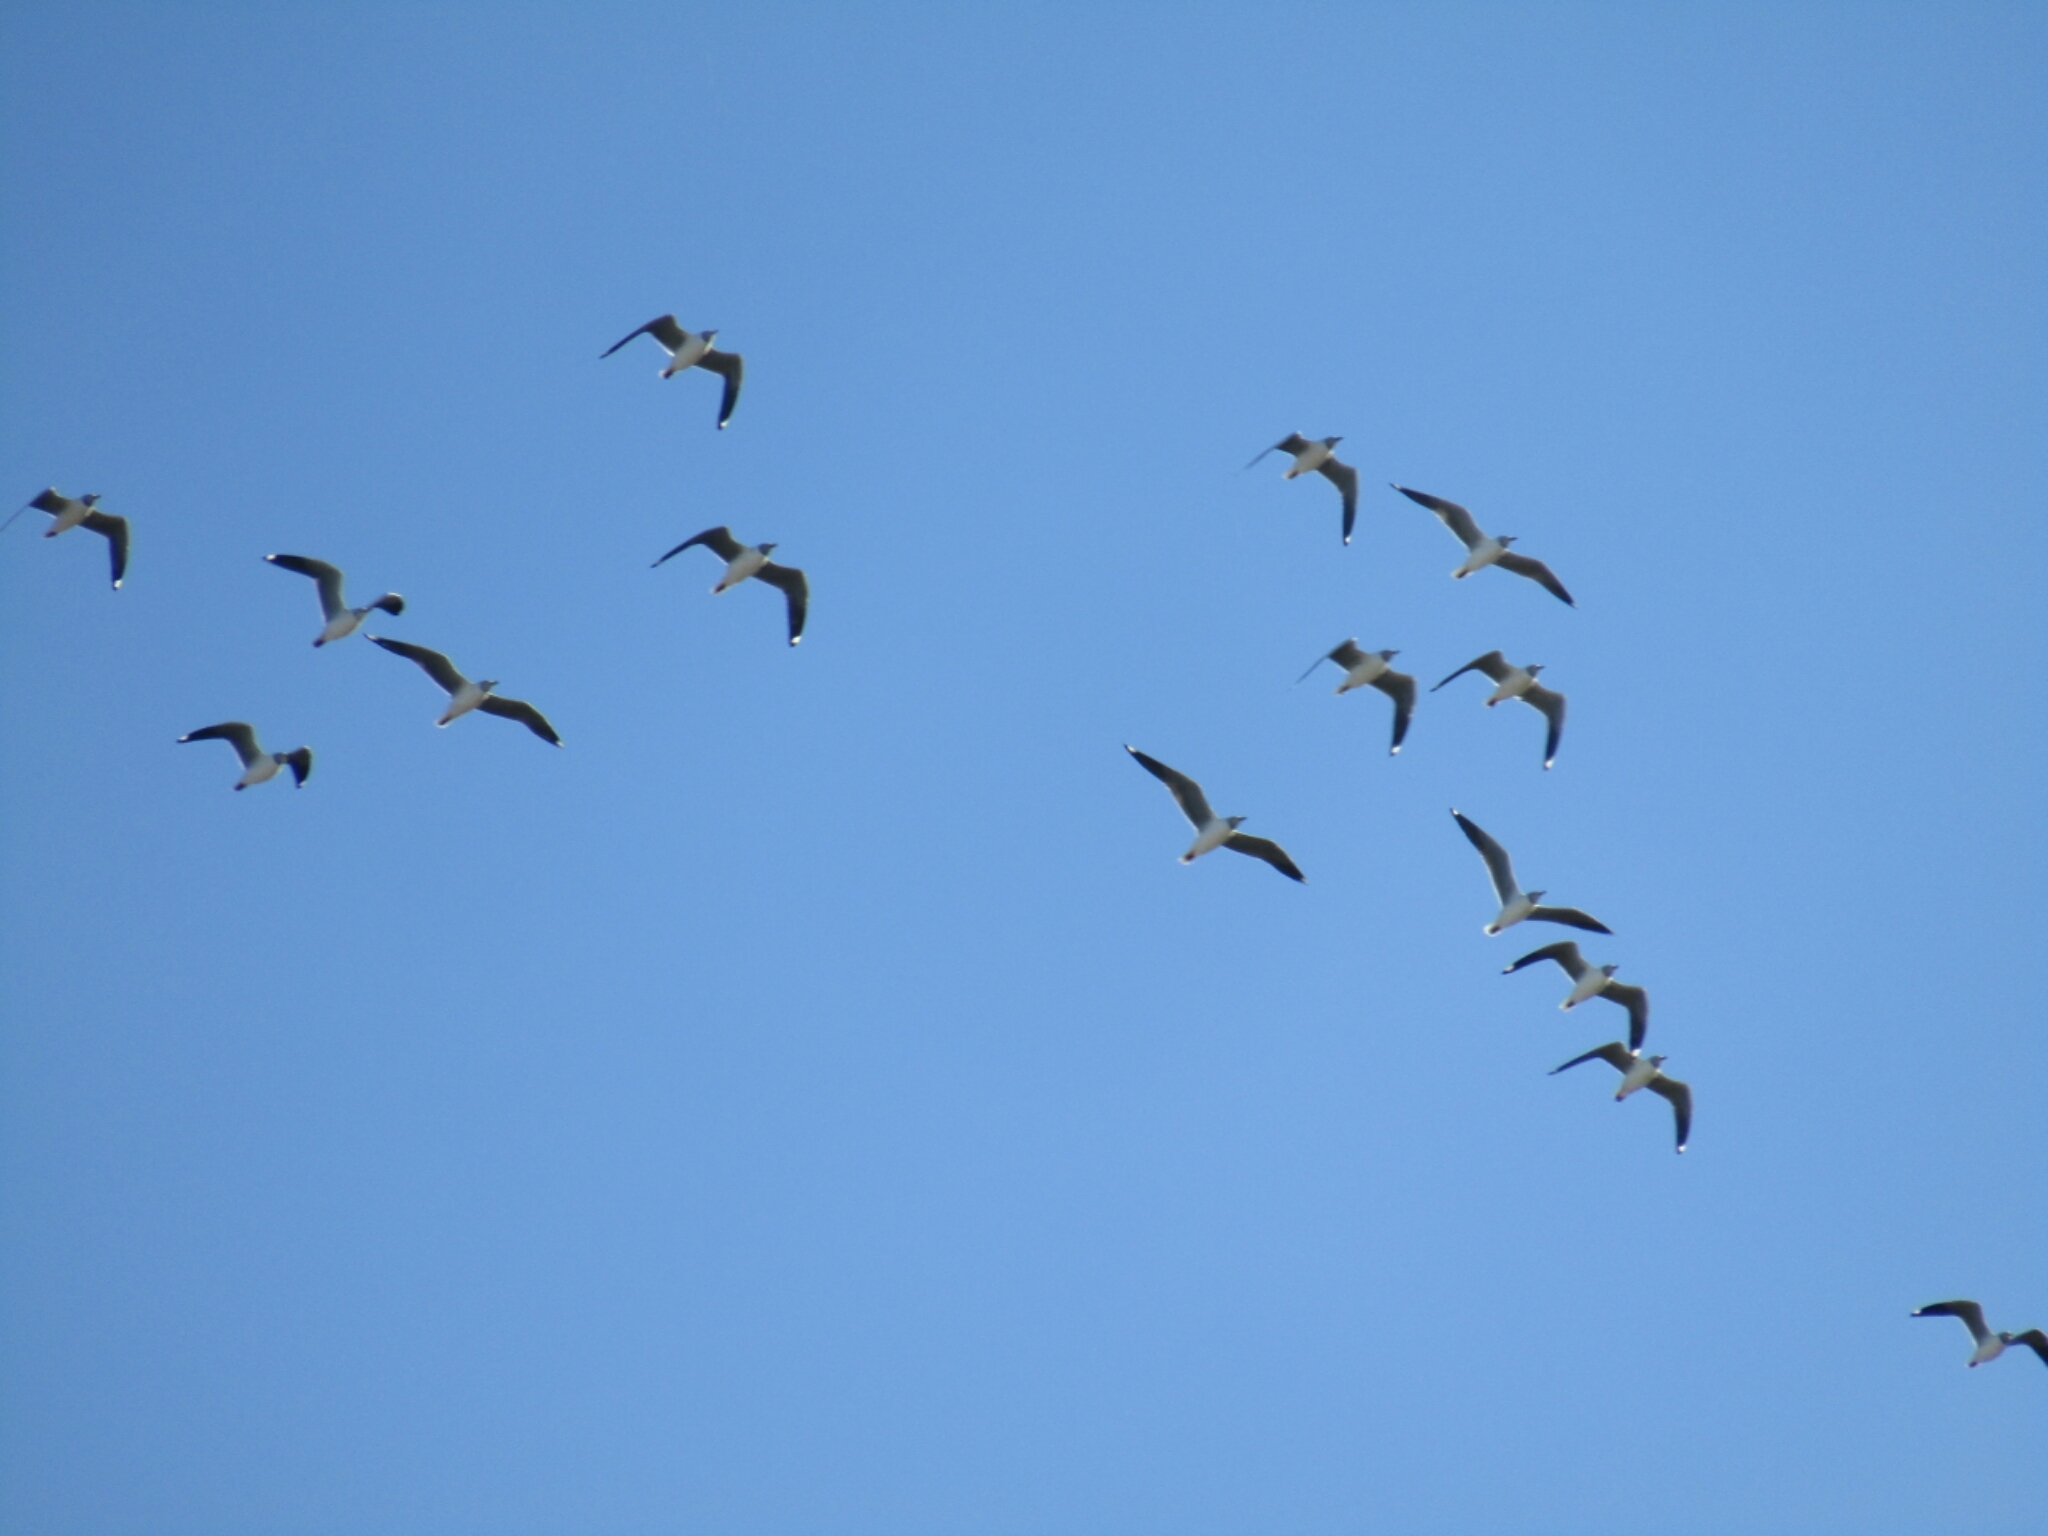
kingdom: Animalia
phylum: Chordata
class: Aves
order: Charadriiformes
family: Laridae
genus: Chroicocephalus
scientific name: Chroicocephalus cirrocephalus
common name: Grey-headed gull
